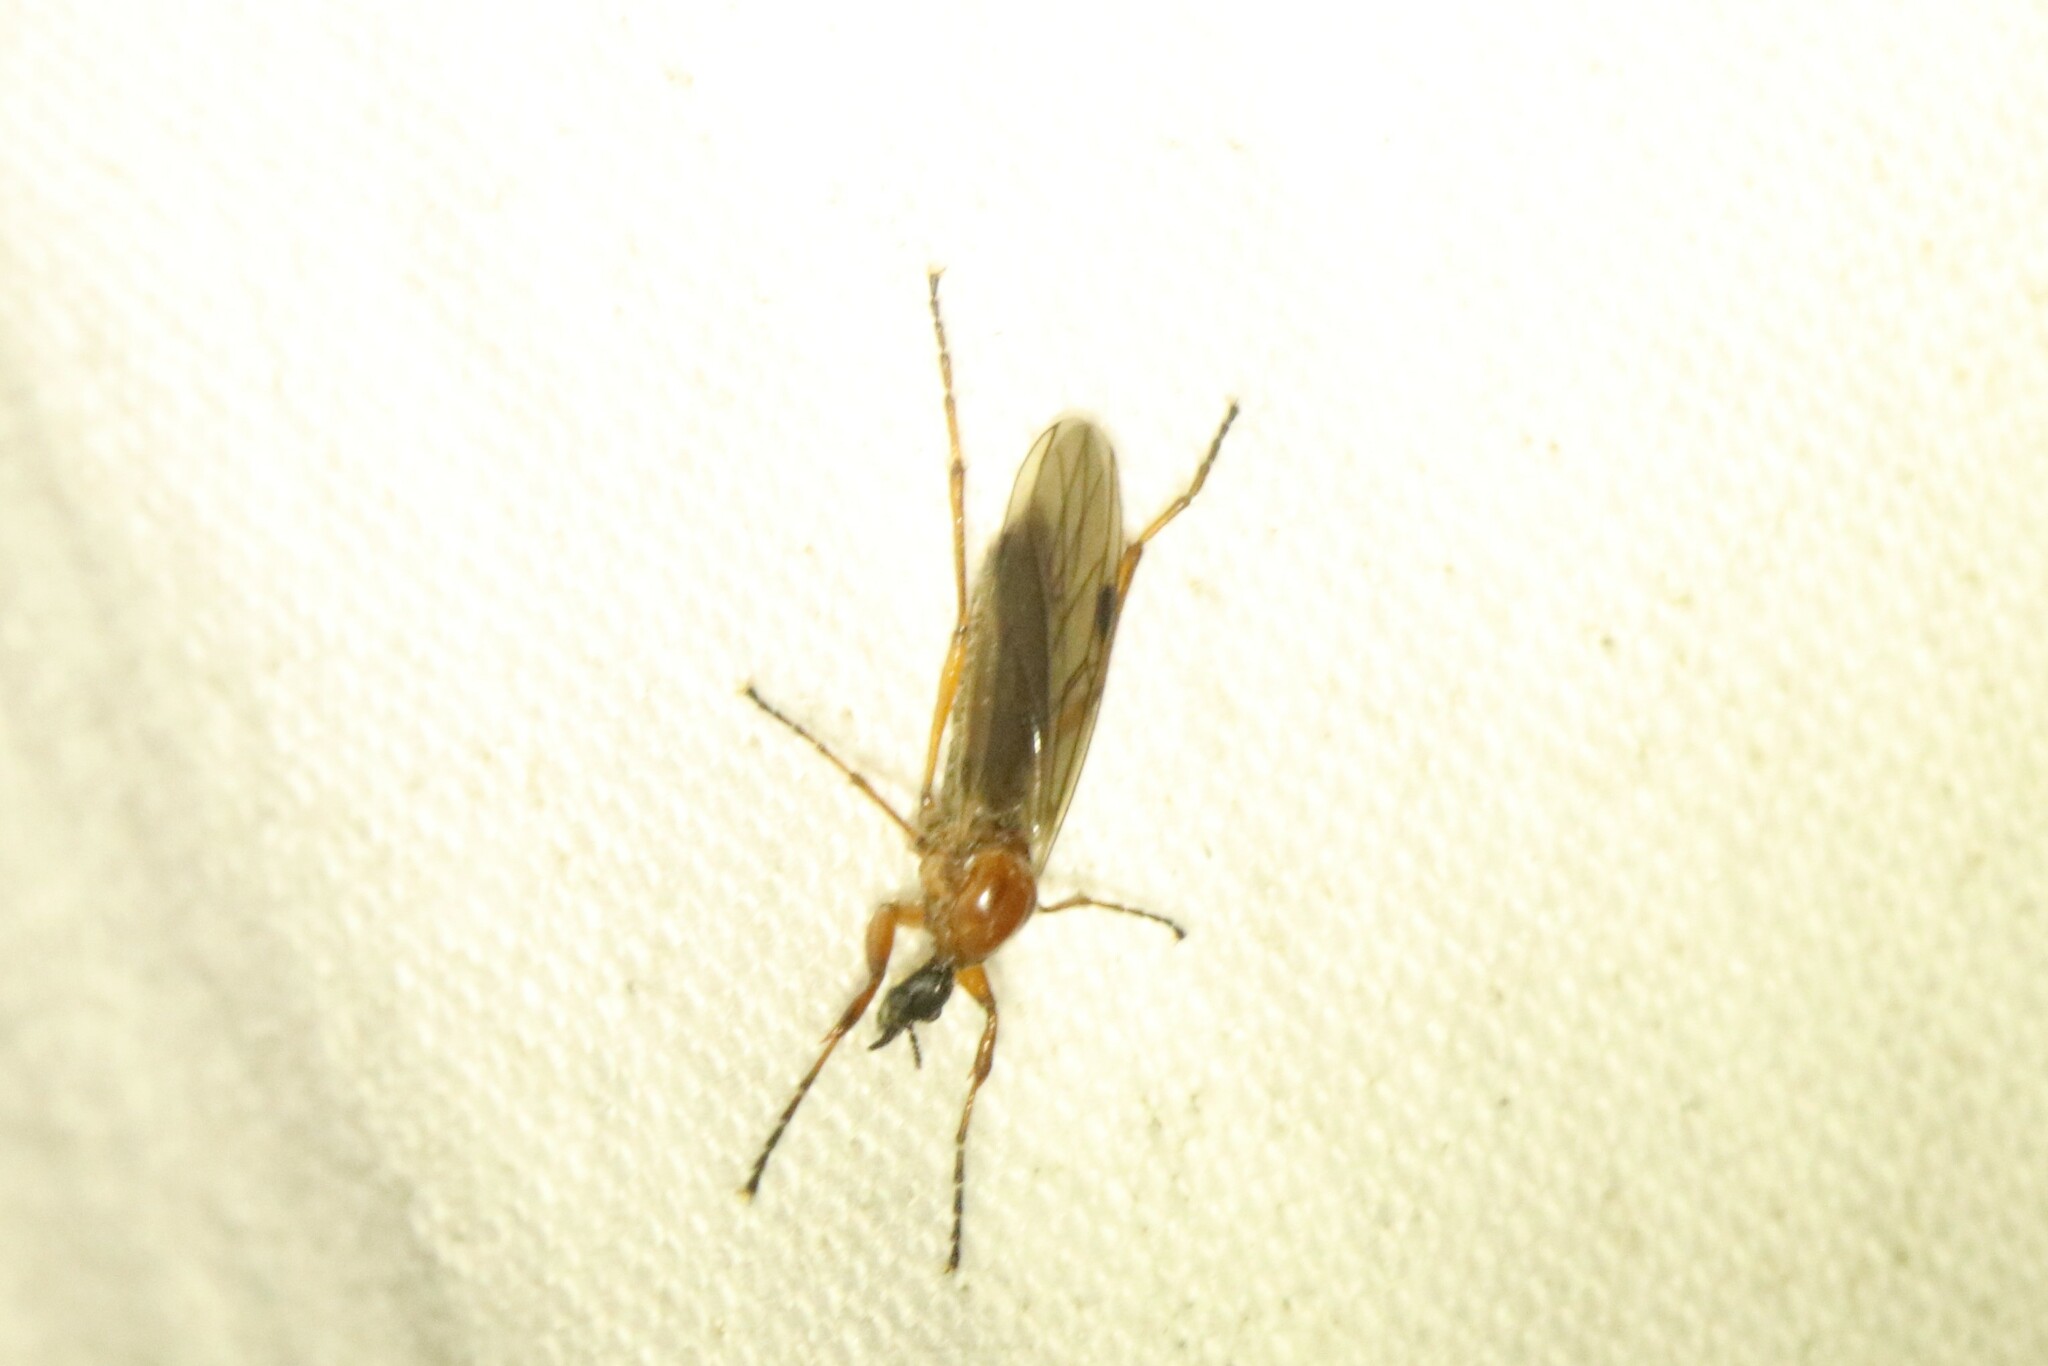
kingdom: Animalia
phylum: Arthropoda
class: Insecta
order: Diptera
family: Bibionidae
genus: Bibio
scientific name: Bibio longipes
